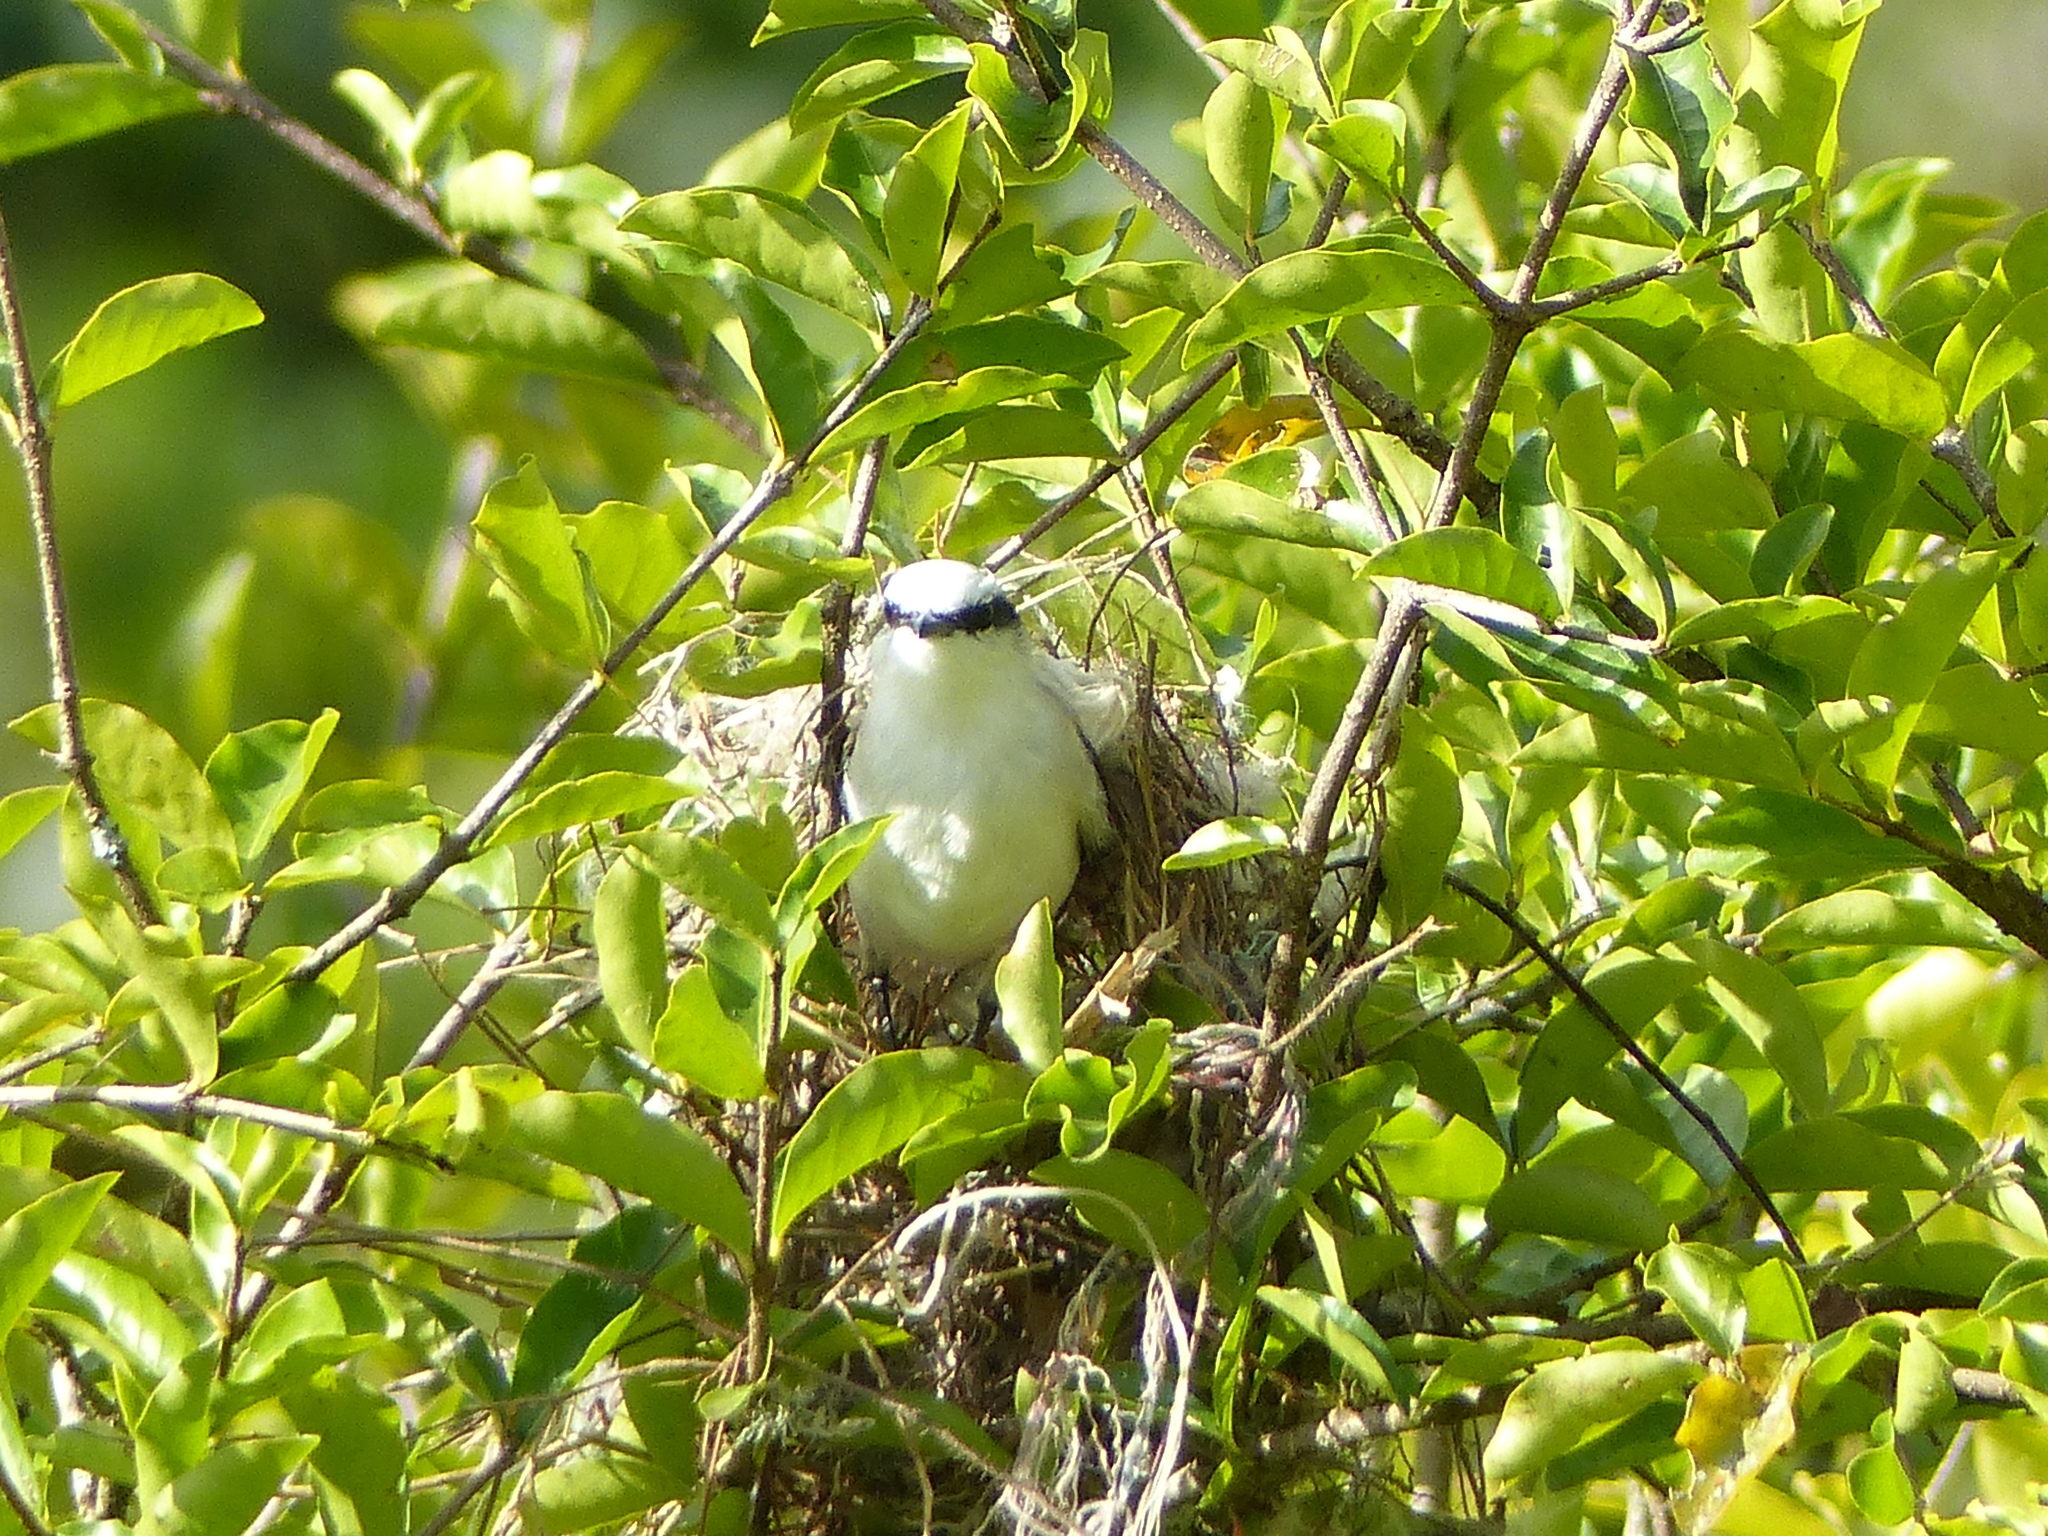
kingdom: Animalia
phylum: Chordata
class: Aves
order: Passeriformes
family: Tyrannidae
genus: Fluvicola
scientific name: Fluvicola nengeta
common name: Masked water tyrant
